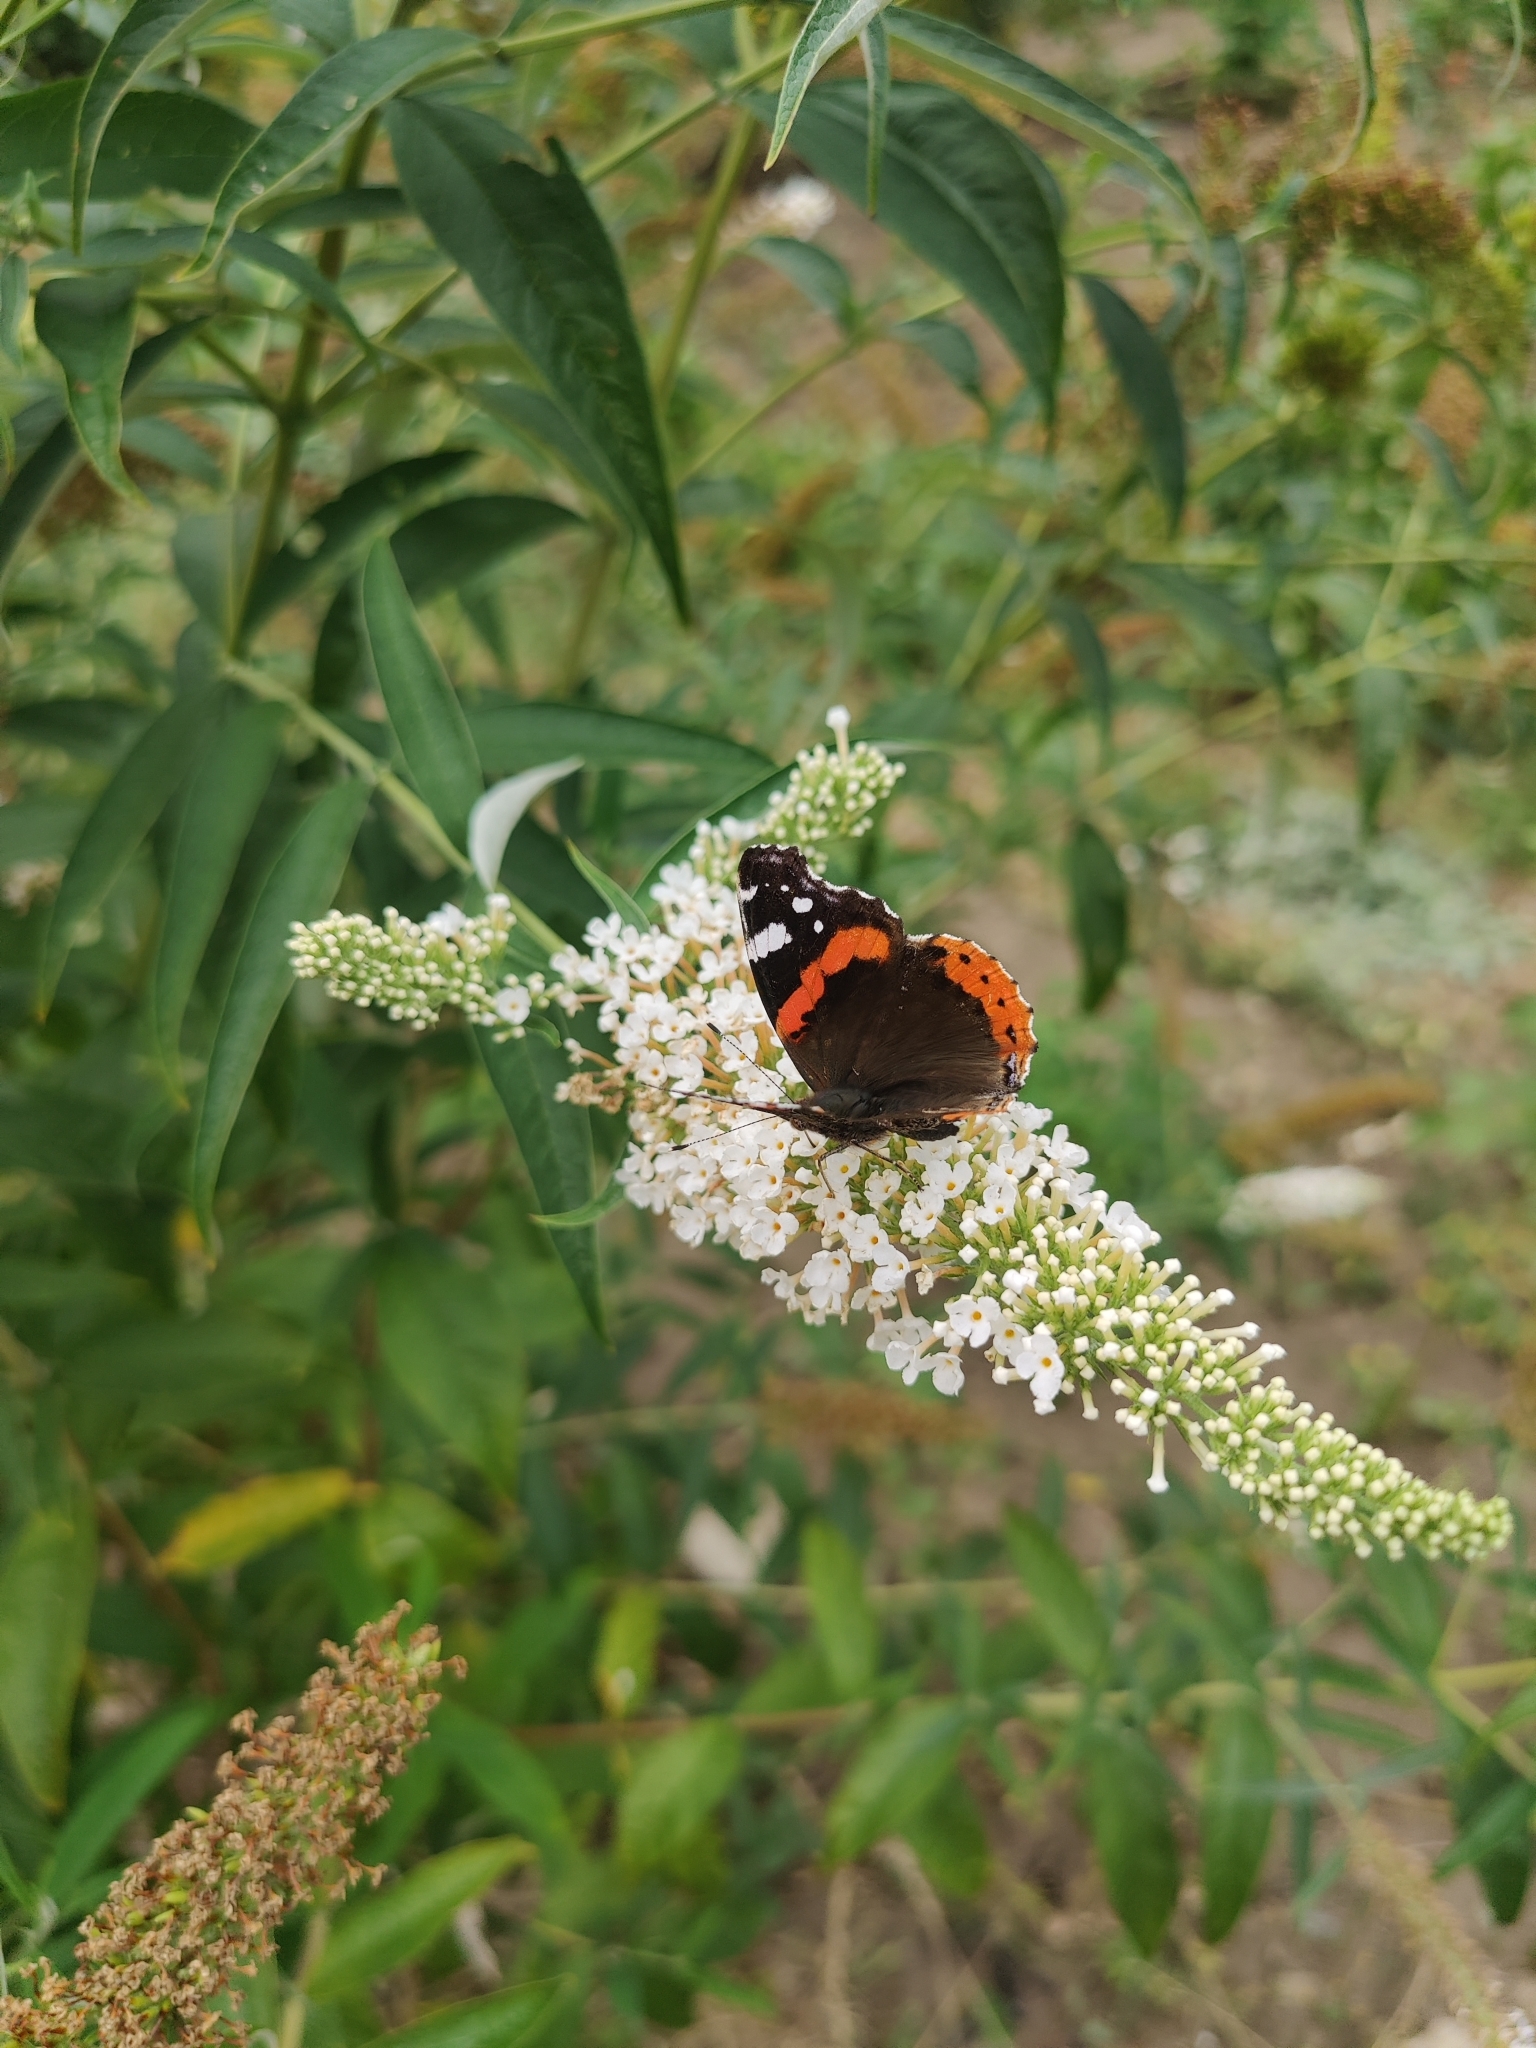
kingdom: Animalia
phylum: Arthropoda
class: Insecta
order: Lepidoptera
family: Nymphalidae
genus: Vanessa
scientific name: Vanessa atalanta
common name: Red admiral
